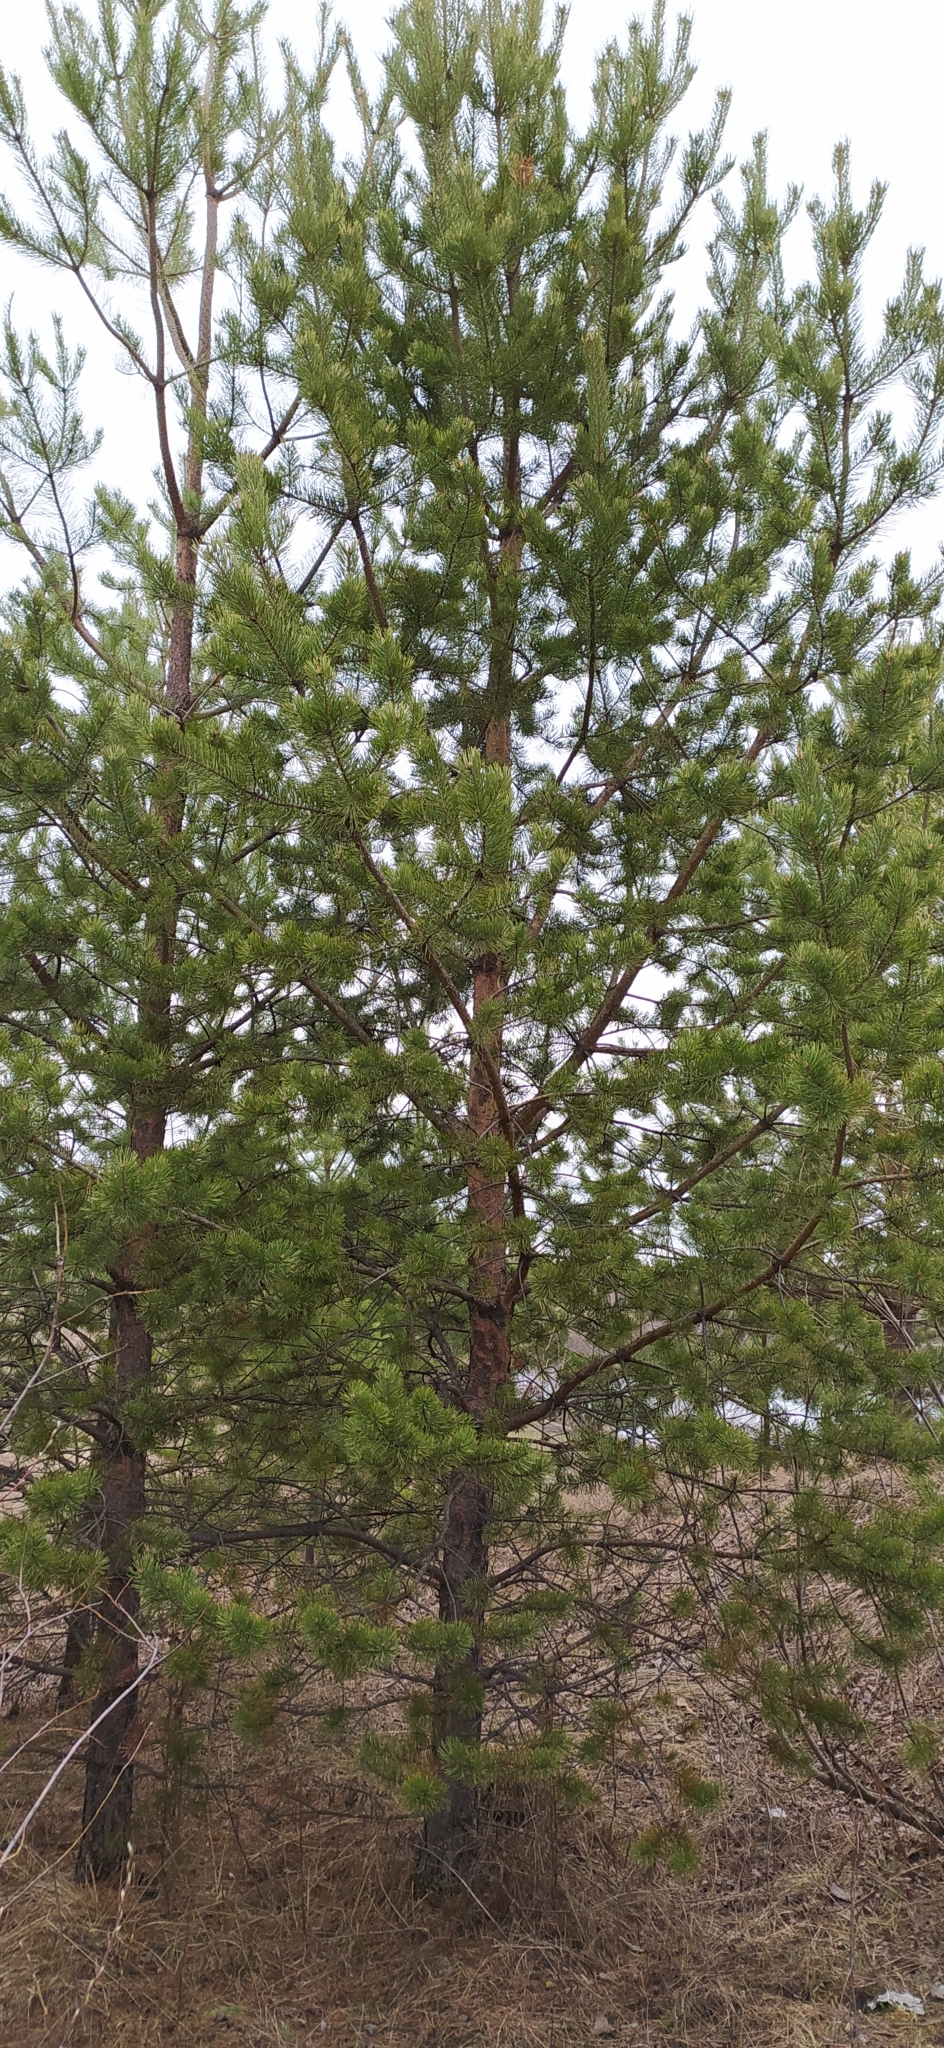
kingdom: Plantae
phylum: Tracheophyta
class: Pinopsida
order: Pinales
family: Pinaceae
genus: Pinus
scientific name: Pinus sylvestris
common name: Scots pine
